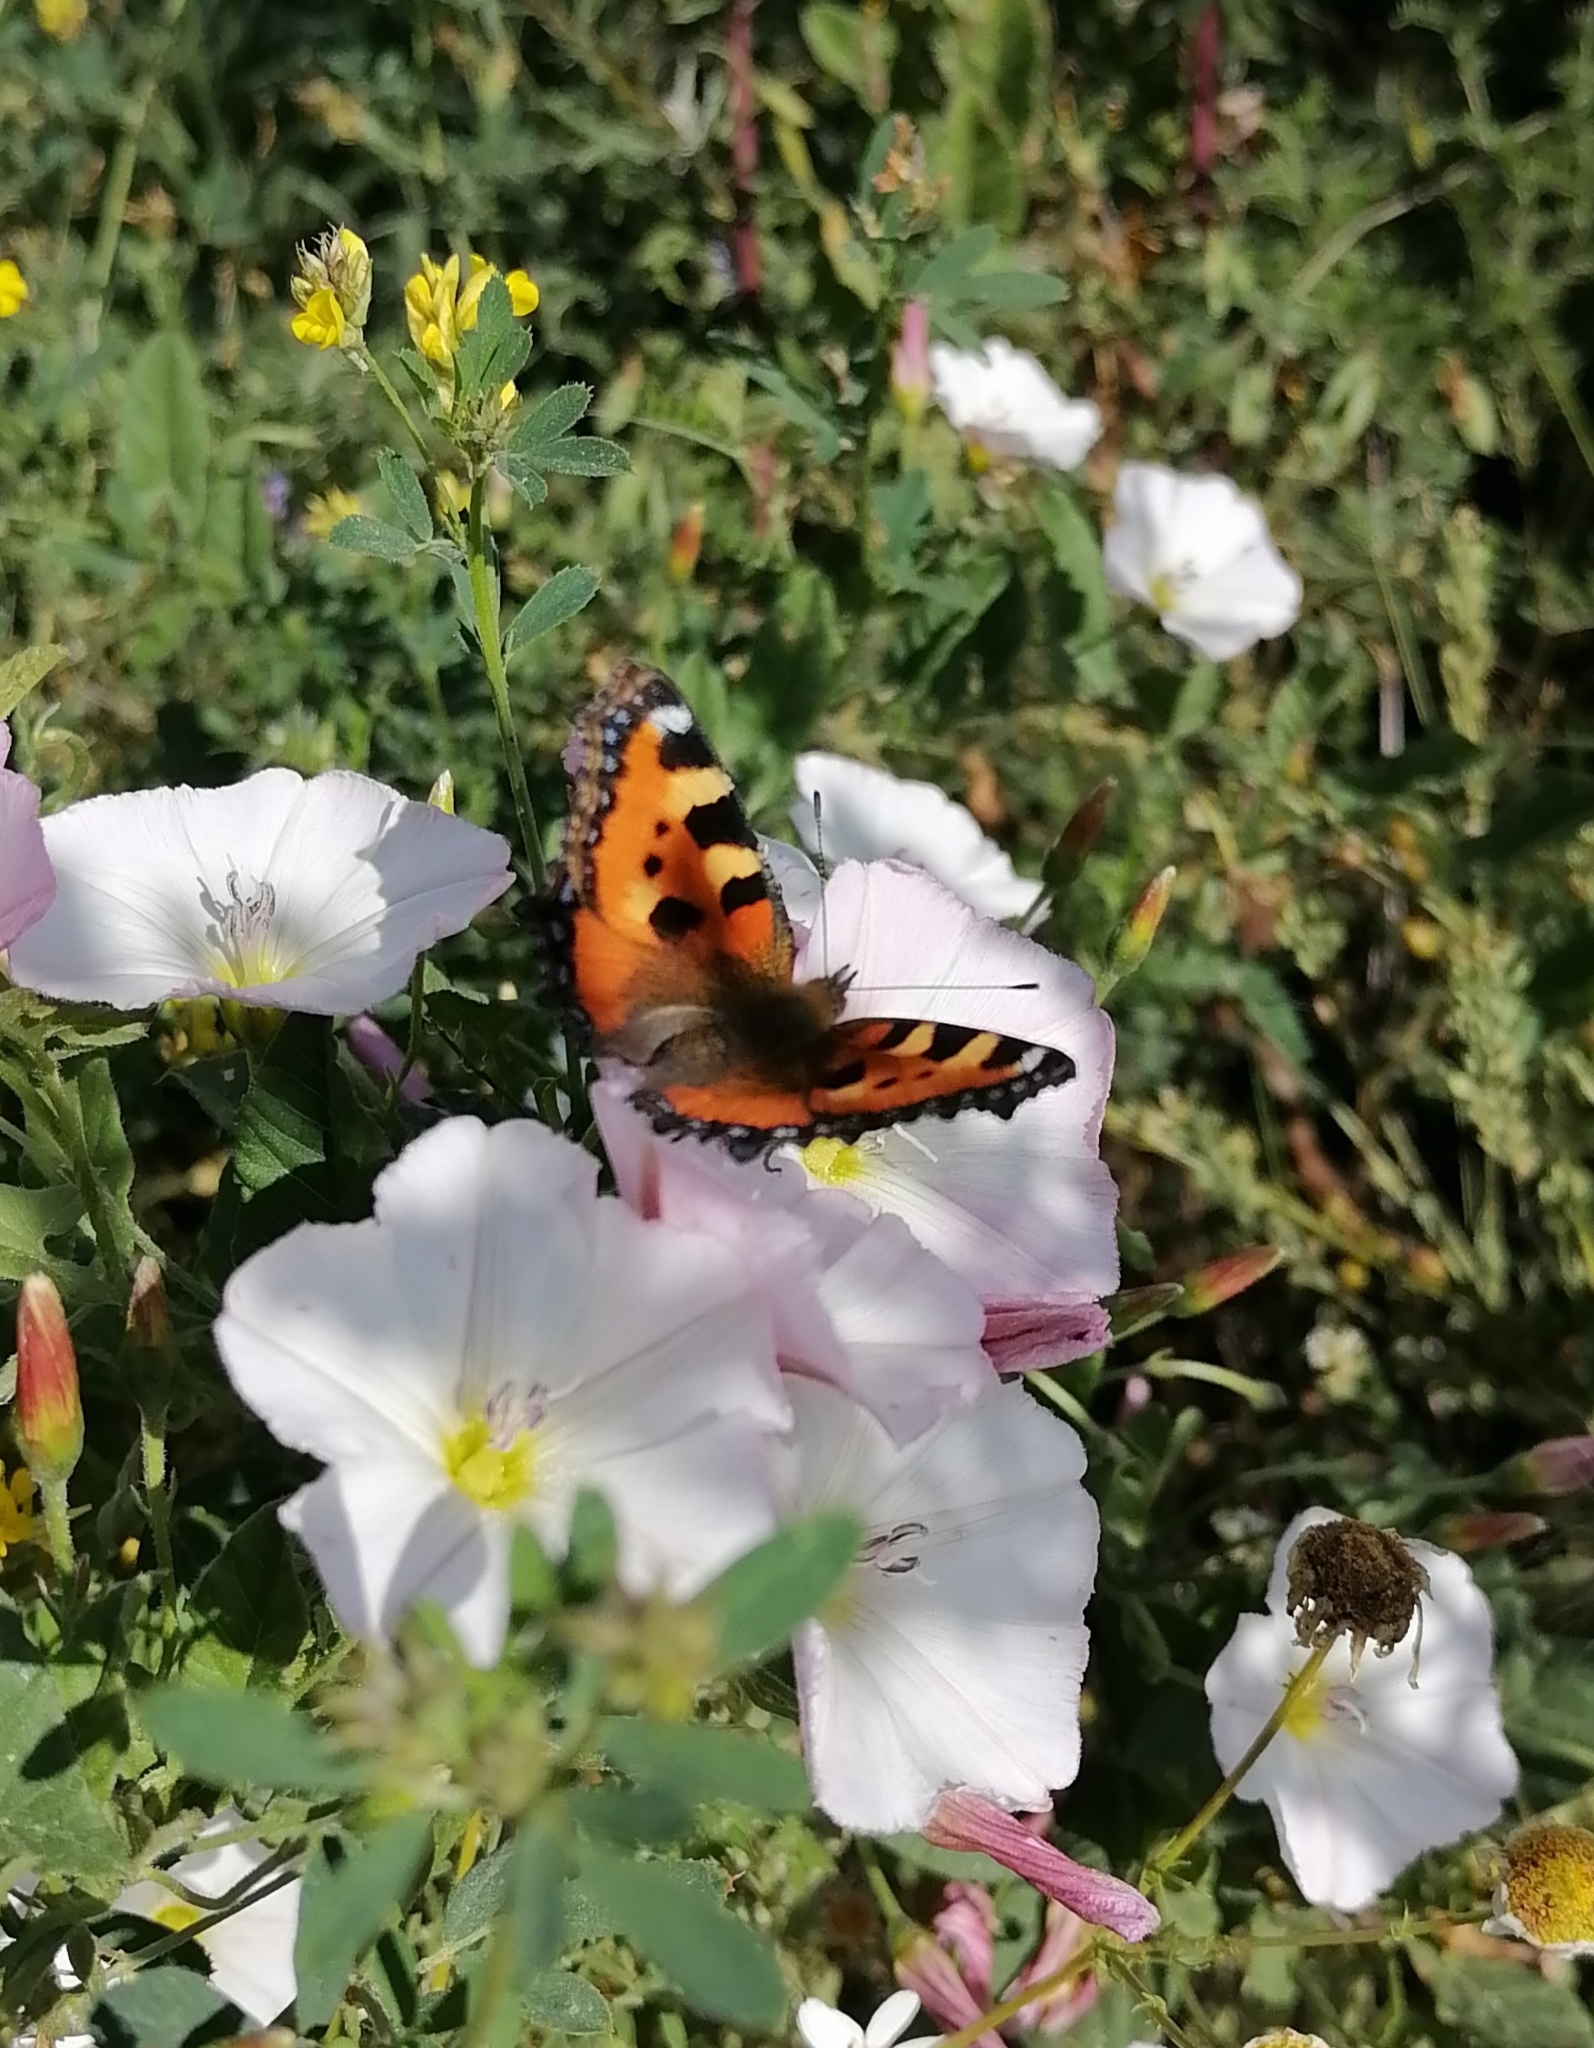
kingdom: Animalia
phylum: Arthropoda
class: Insecta
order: Lepidoptera
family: Nymphalidae
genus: Aglais
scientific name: Aglais urticae
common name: Small tortoiseshell
